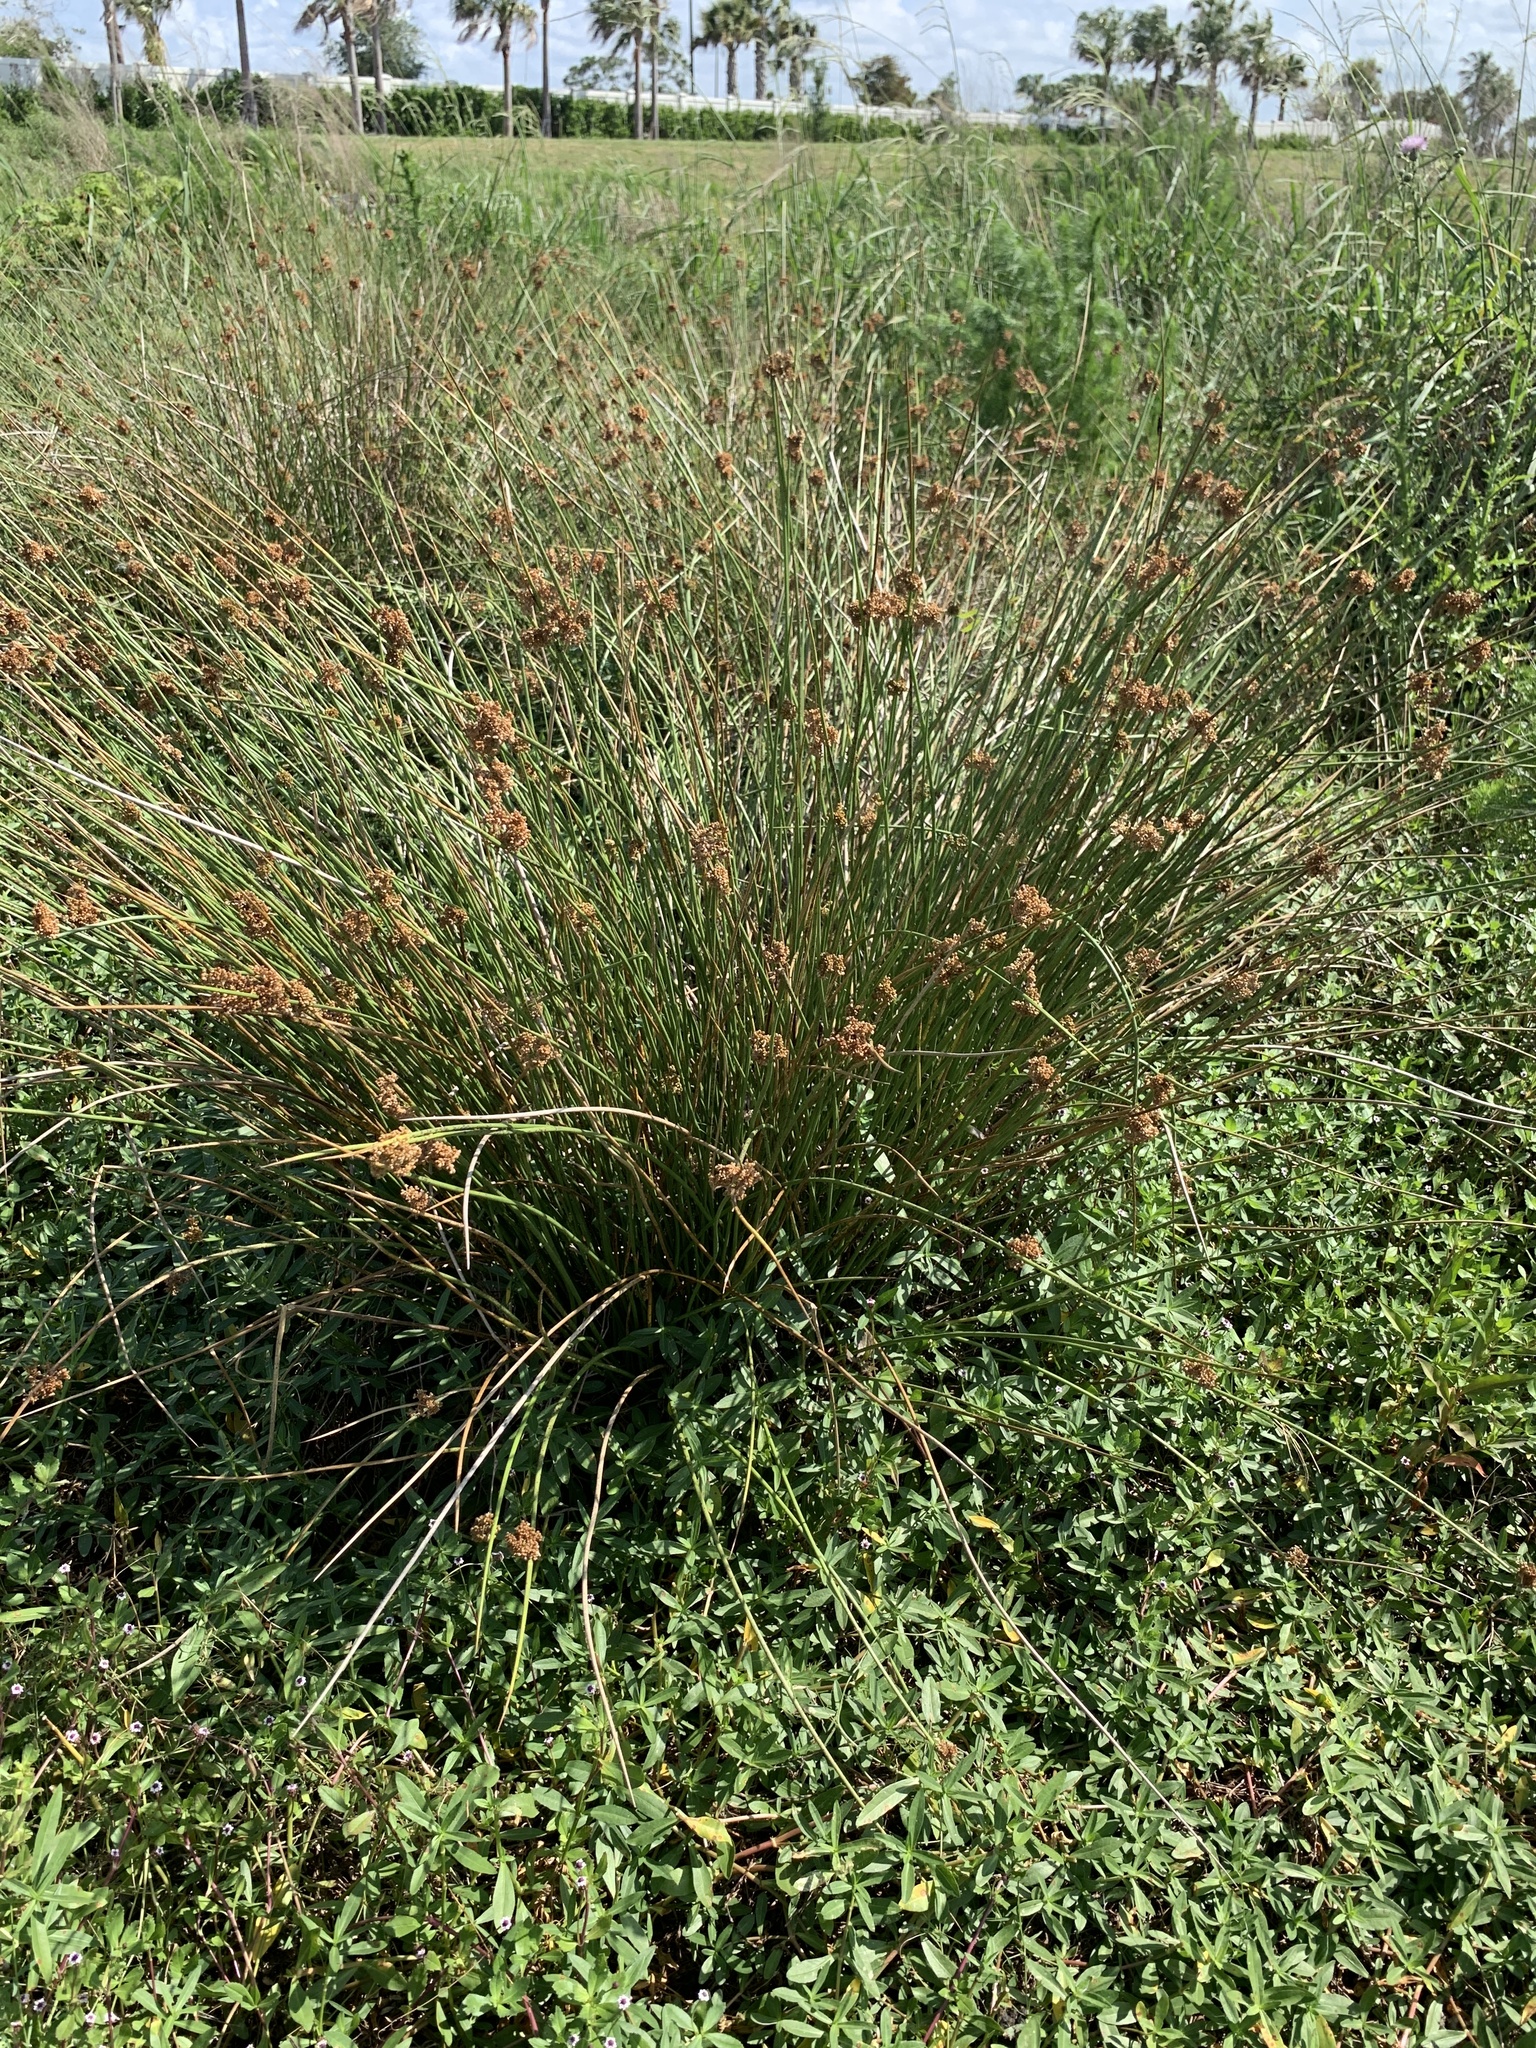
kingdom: Plantae
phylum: Tracheophyta
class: Liliopsida
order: Poales
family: Juncaceae
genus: Juncus
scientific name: Juncus effusus
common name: Soft rush
